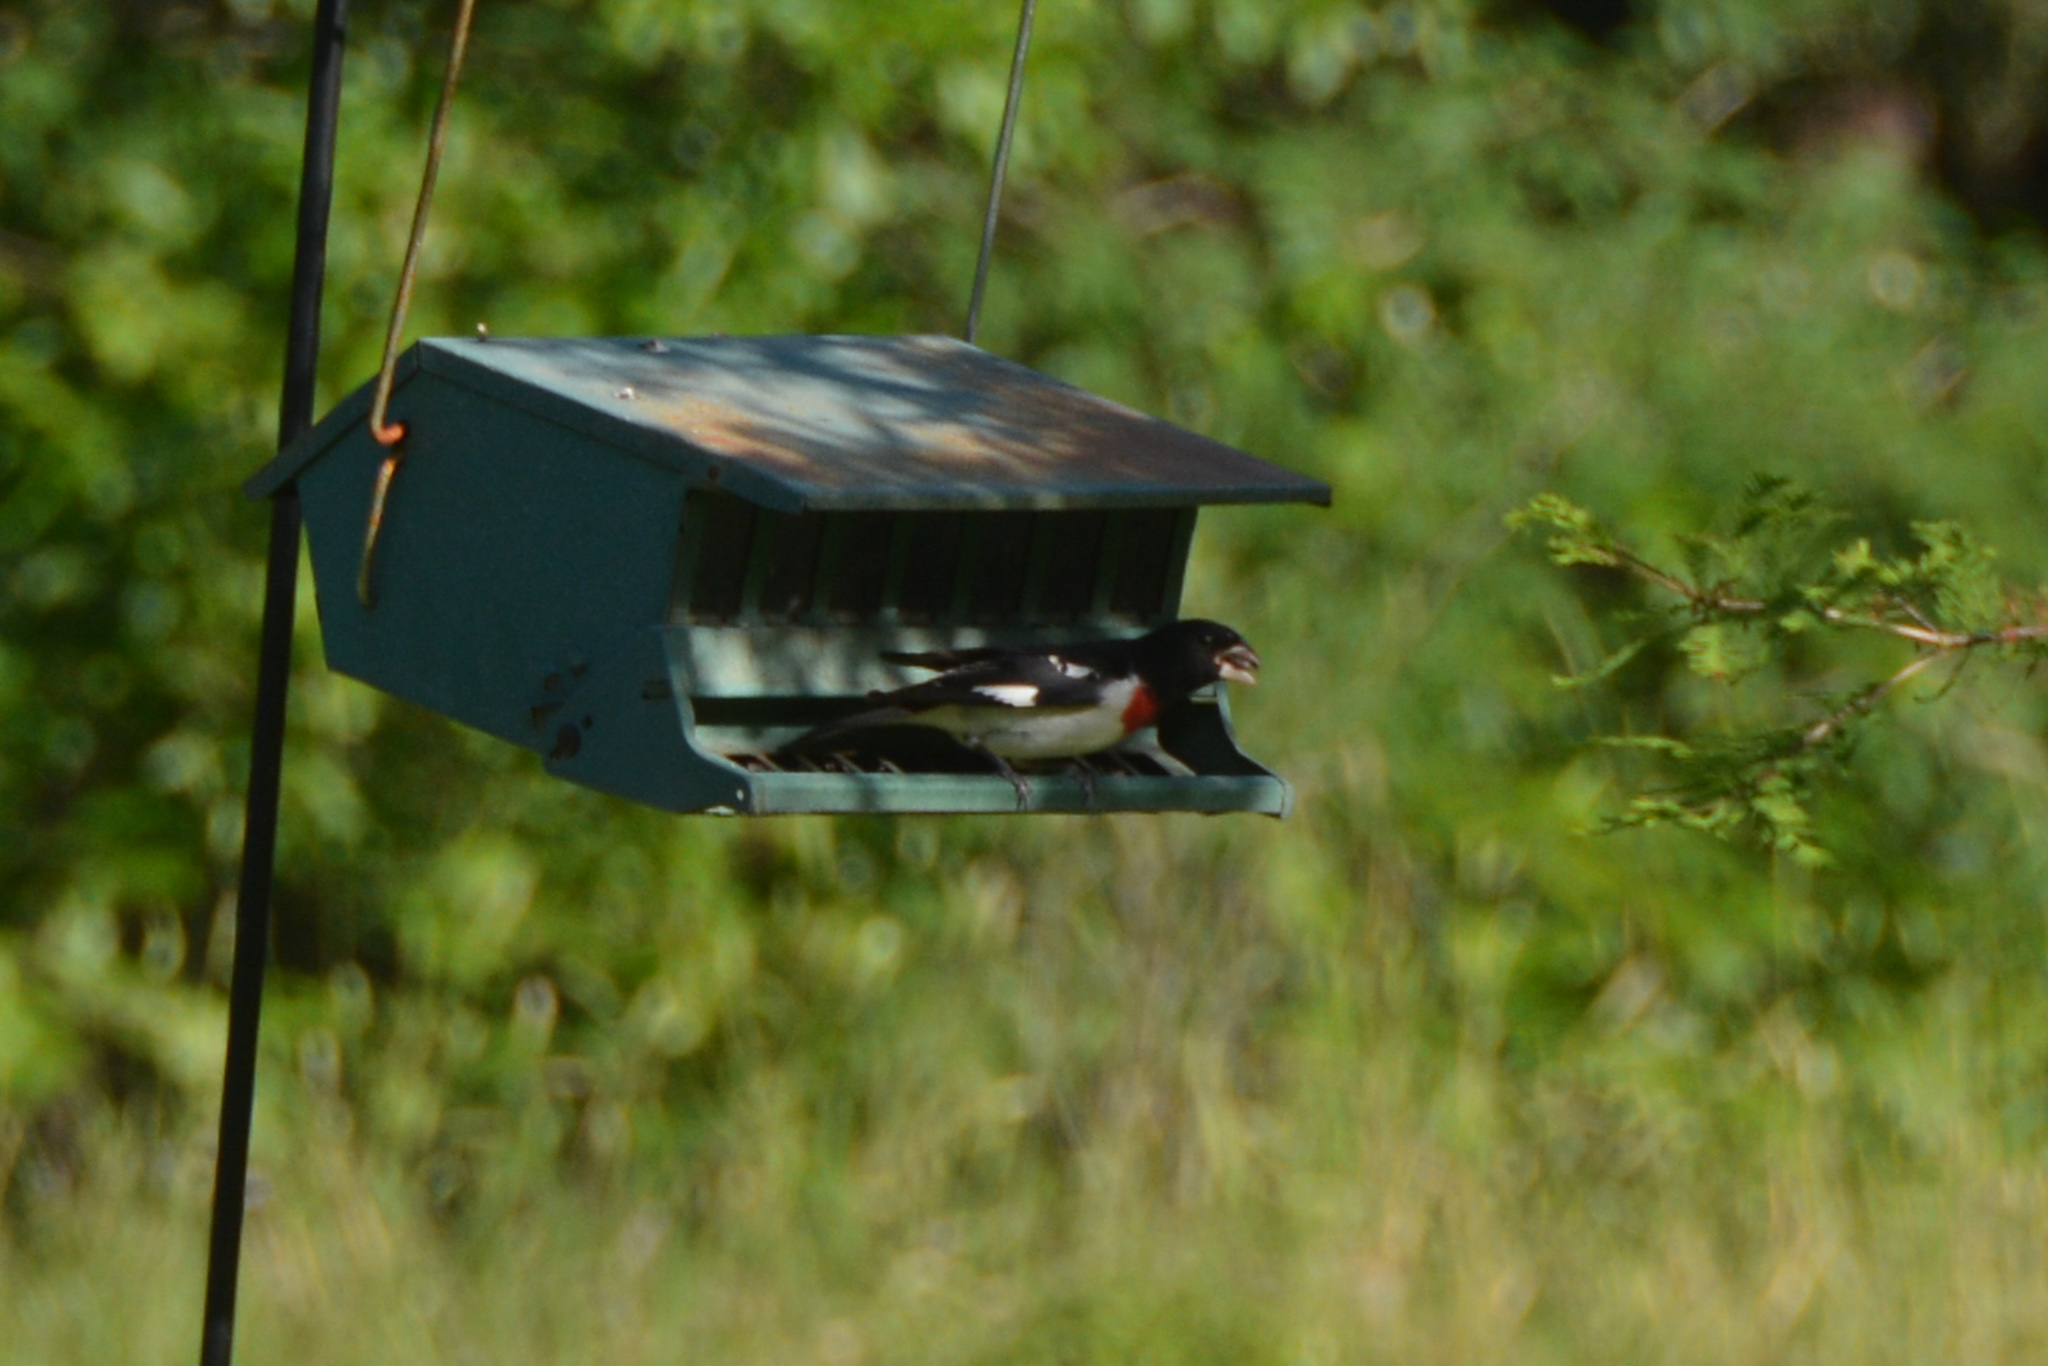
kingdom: Animalia
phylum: Chordata
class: Aves
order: Passeriformes
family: Cardinalidae
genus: Pheucticus
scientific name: Pheucticus ludovicianus
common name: Rose-breasted grosbeak
